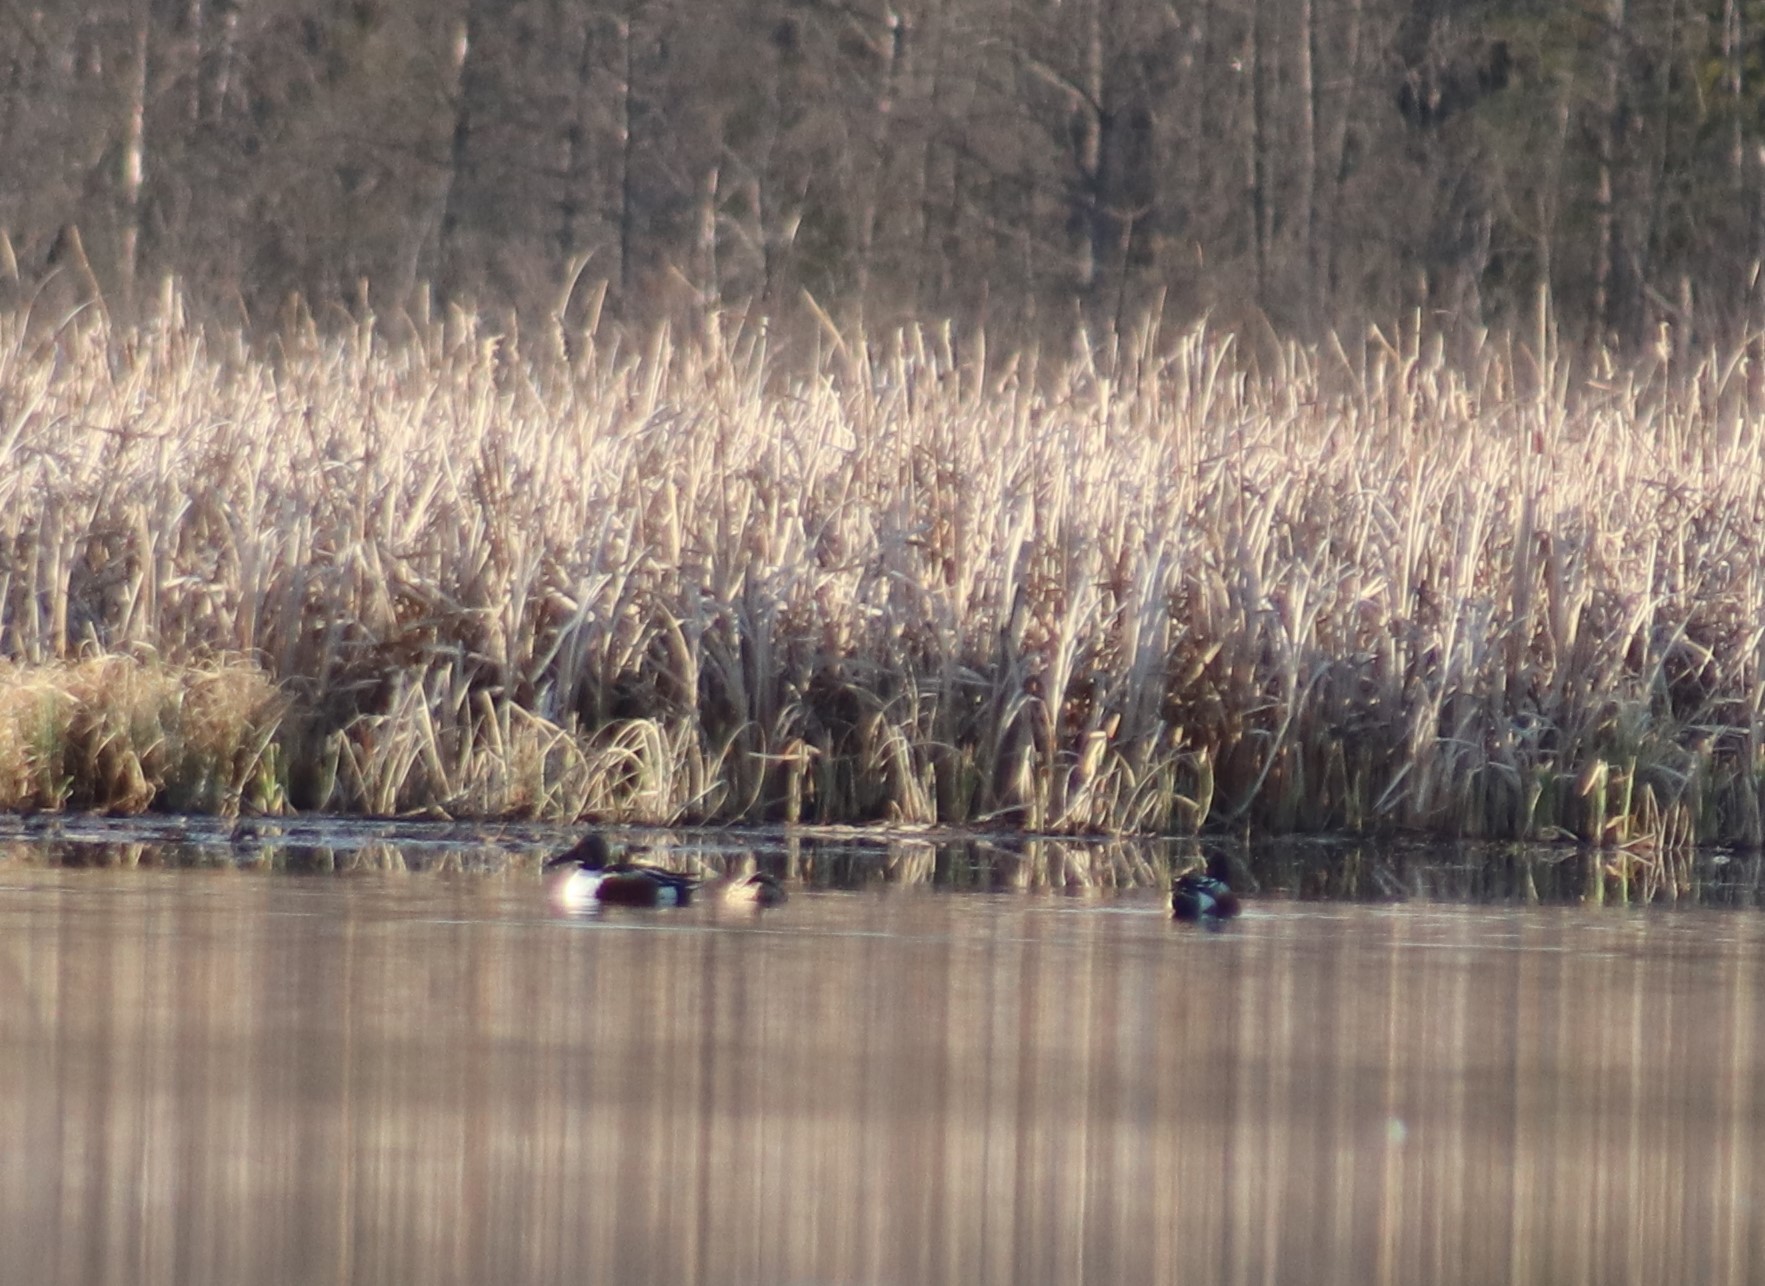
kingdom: Animalia
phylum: Chordata
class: Aves
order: Anseriformes
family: Anatidae
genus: Spatula
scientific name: Spatula clypeata
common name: Northern shoveler
